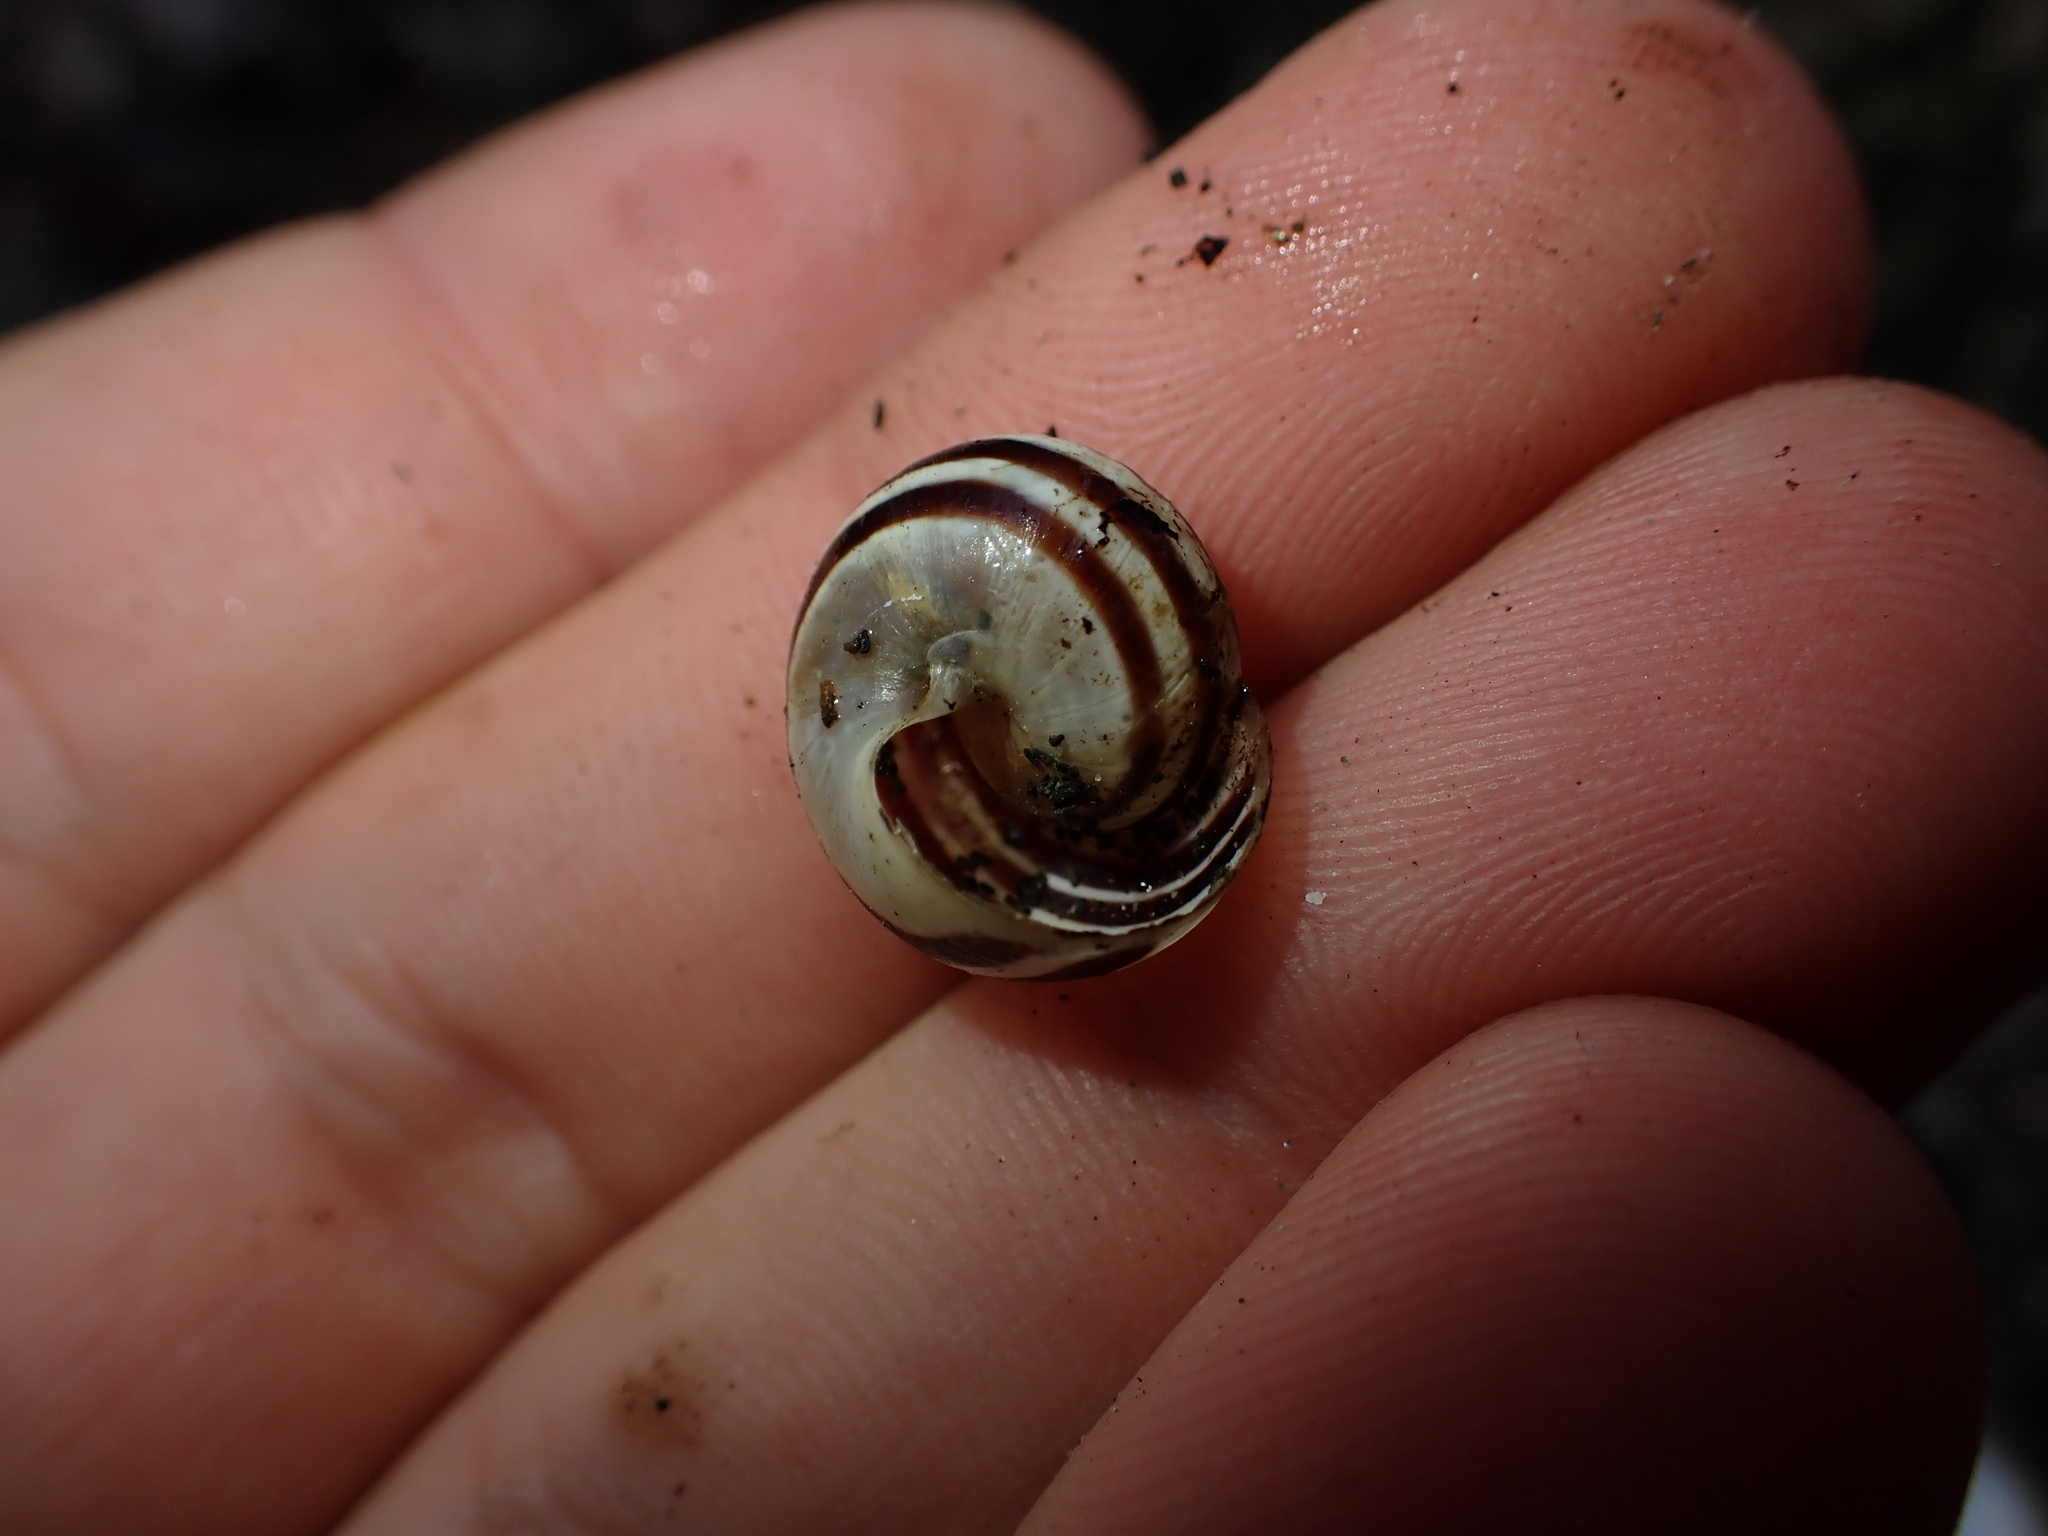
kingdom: Animalia
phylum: Mollusca
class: Gastropoda
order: Stylommatophora
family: Helicidae
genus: Cepaea
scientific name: Cepaea
